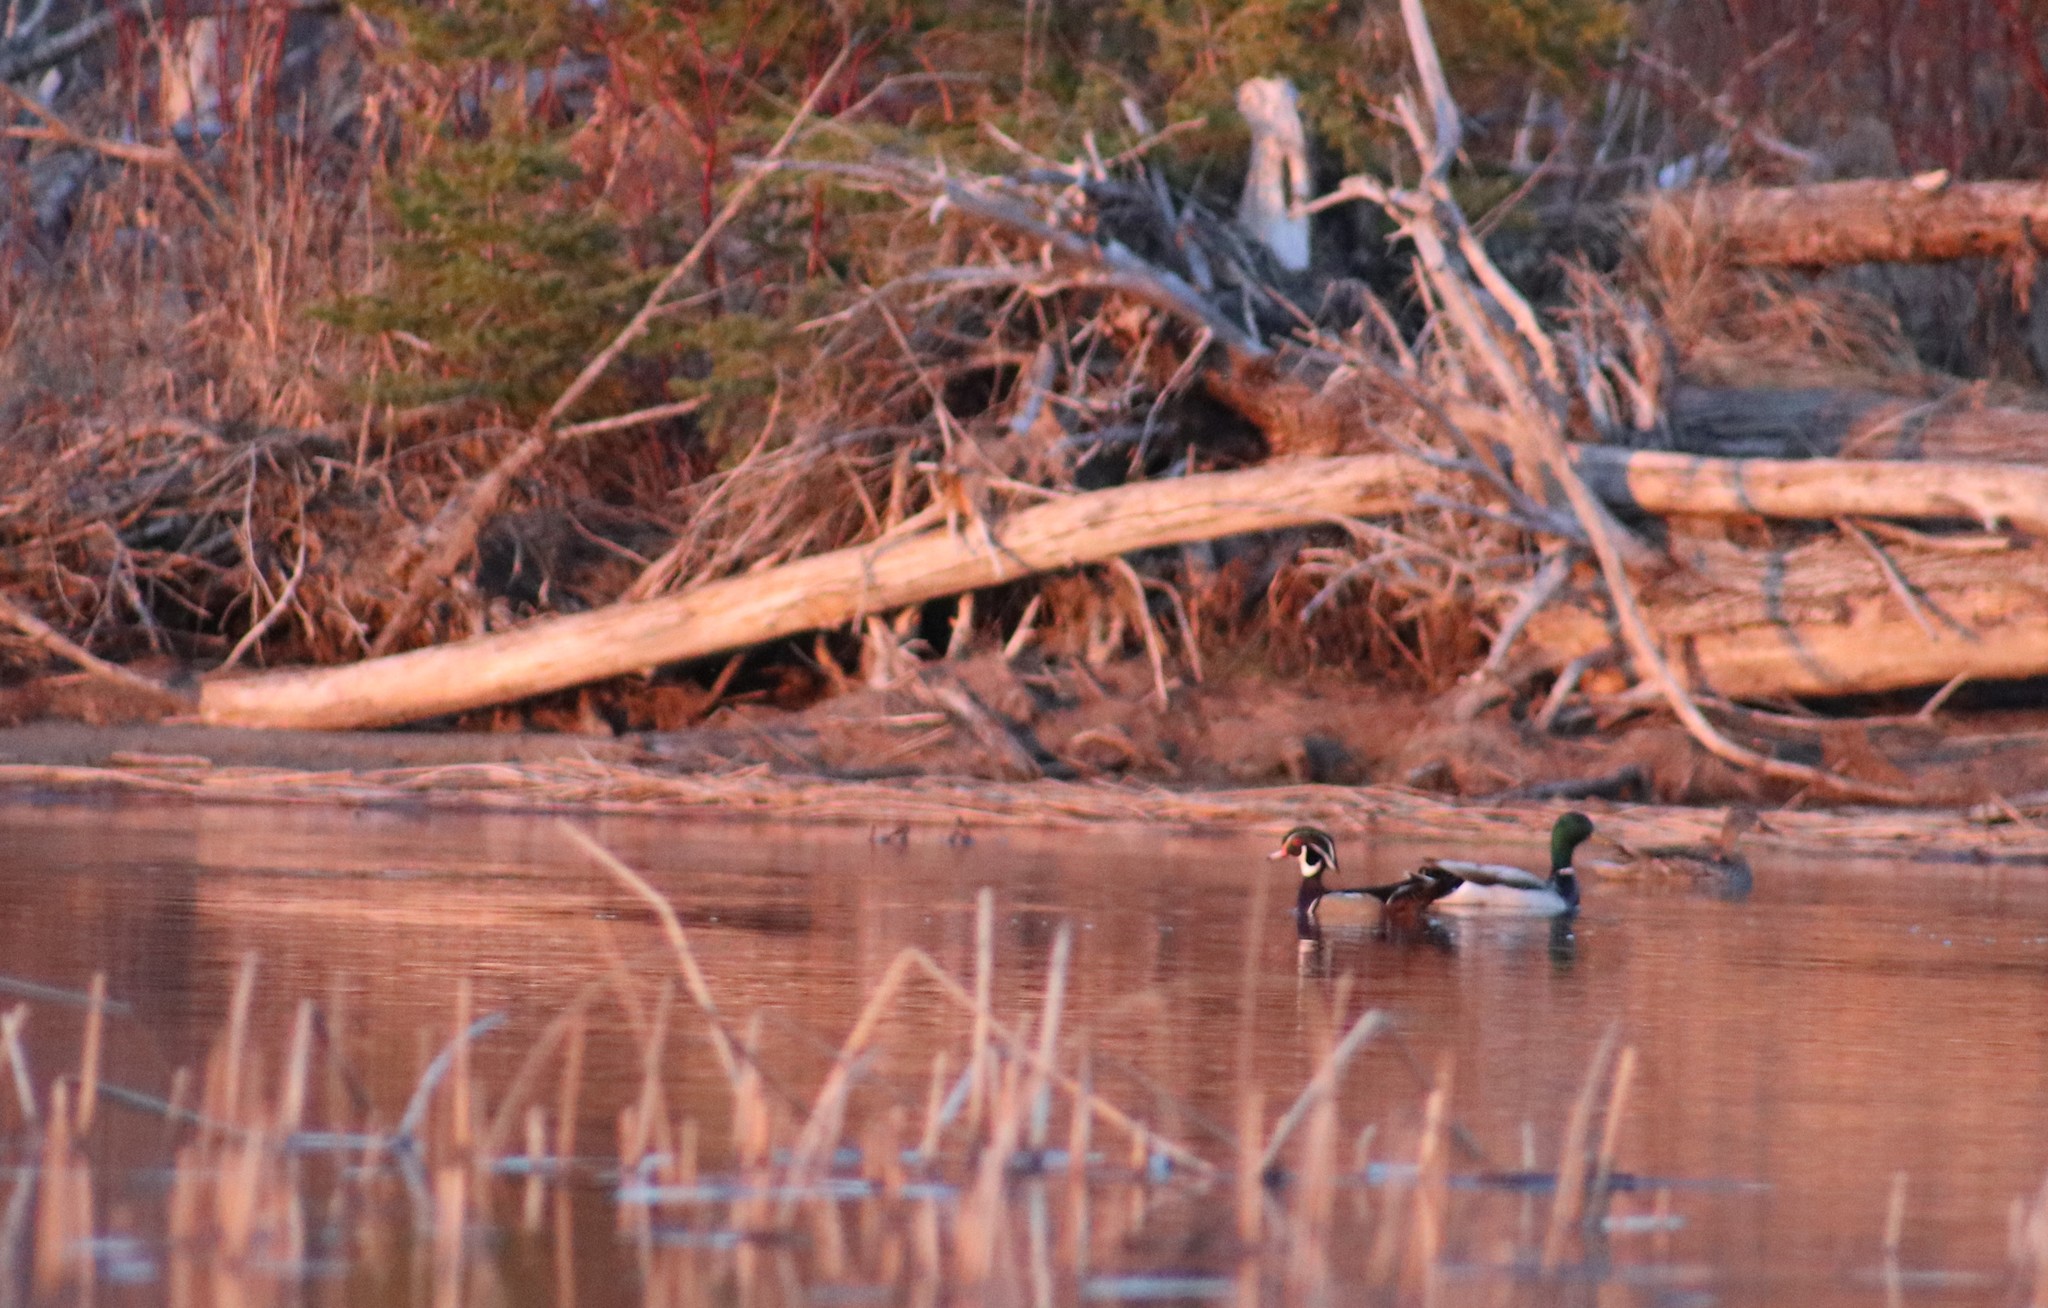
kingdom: Animalia
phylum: Chordata
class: Aves
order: Anseriformes
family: Anatidae
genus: Aix
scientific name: Aix sponsa
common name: Wood duck
